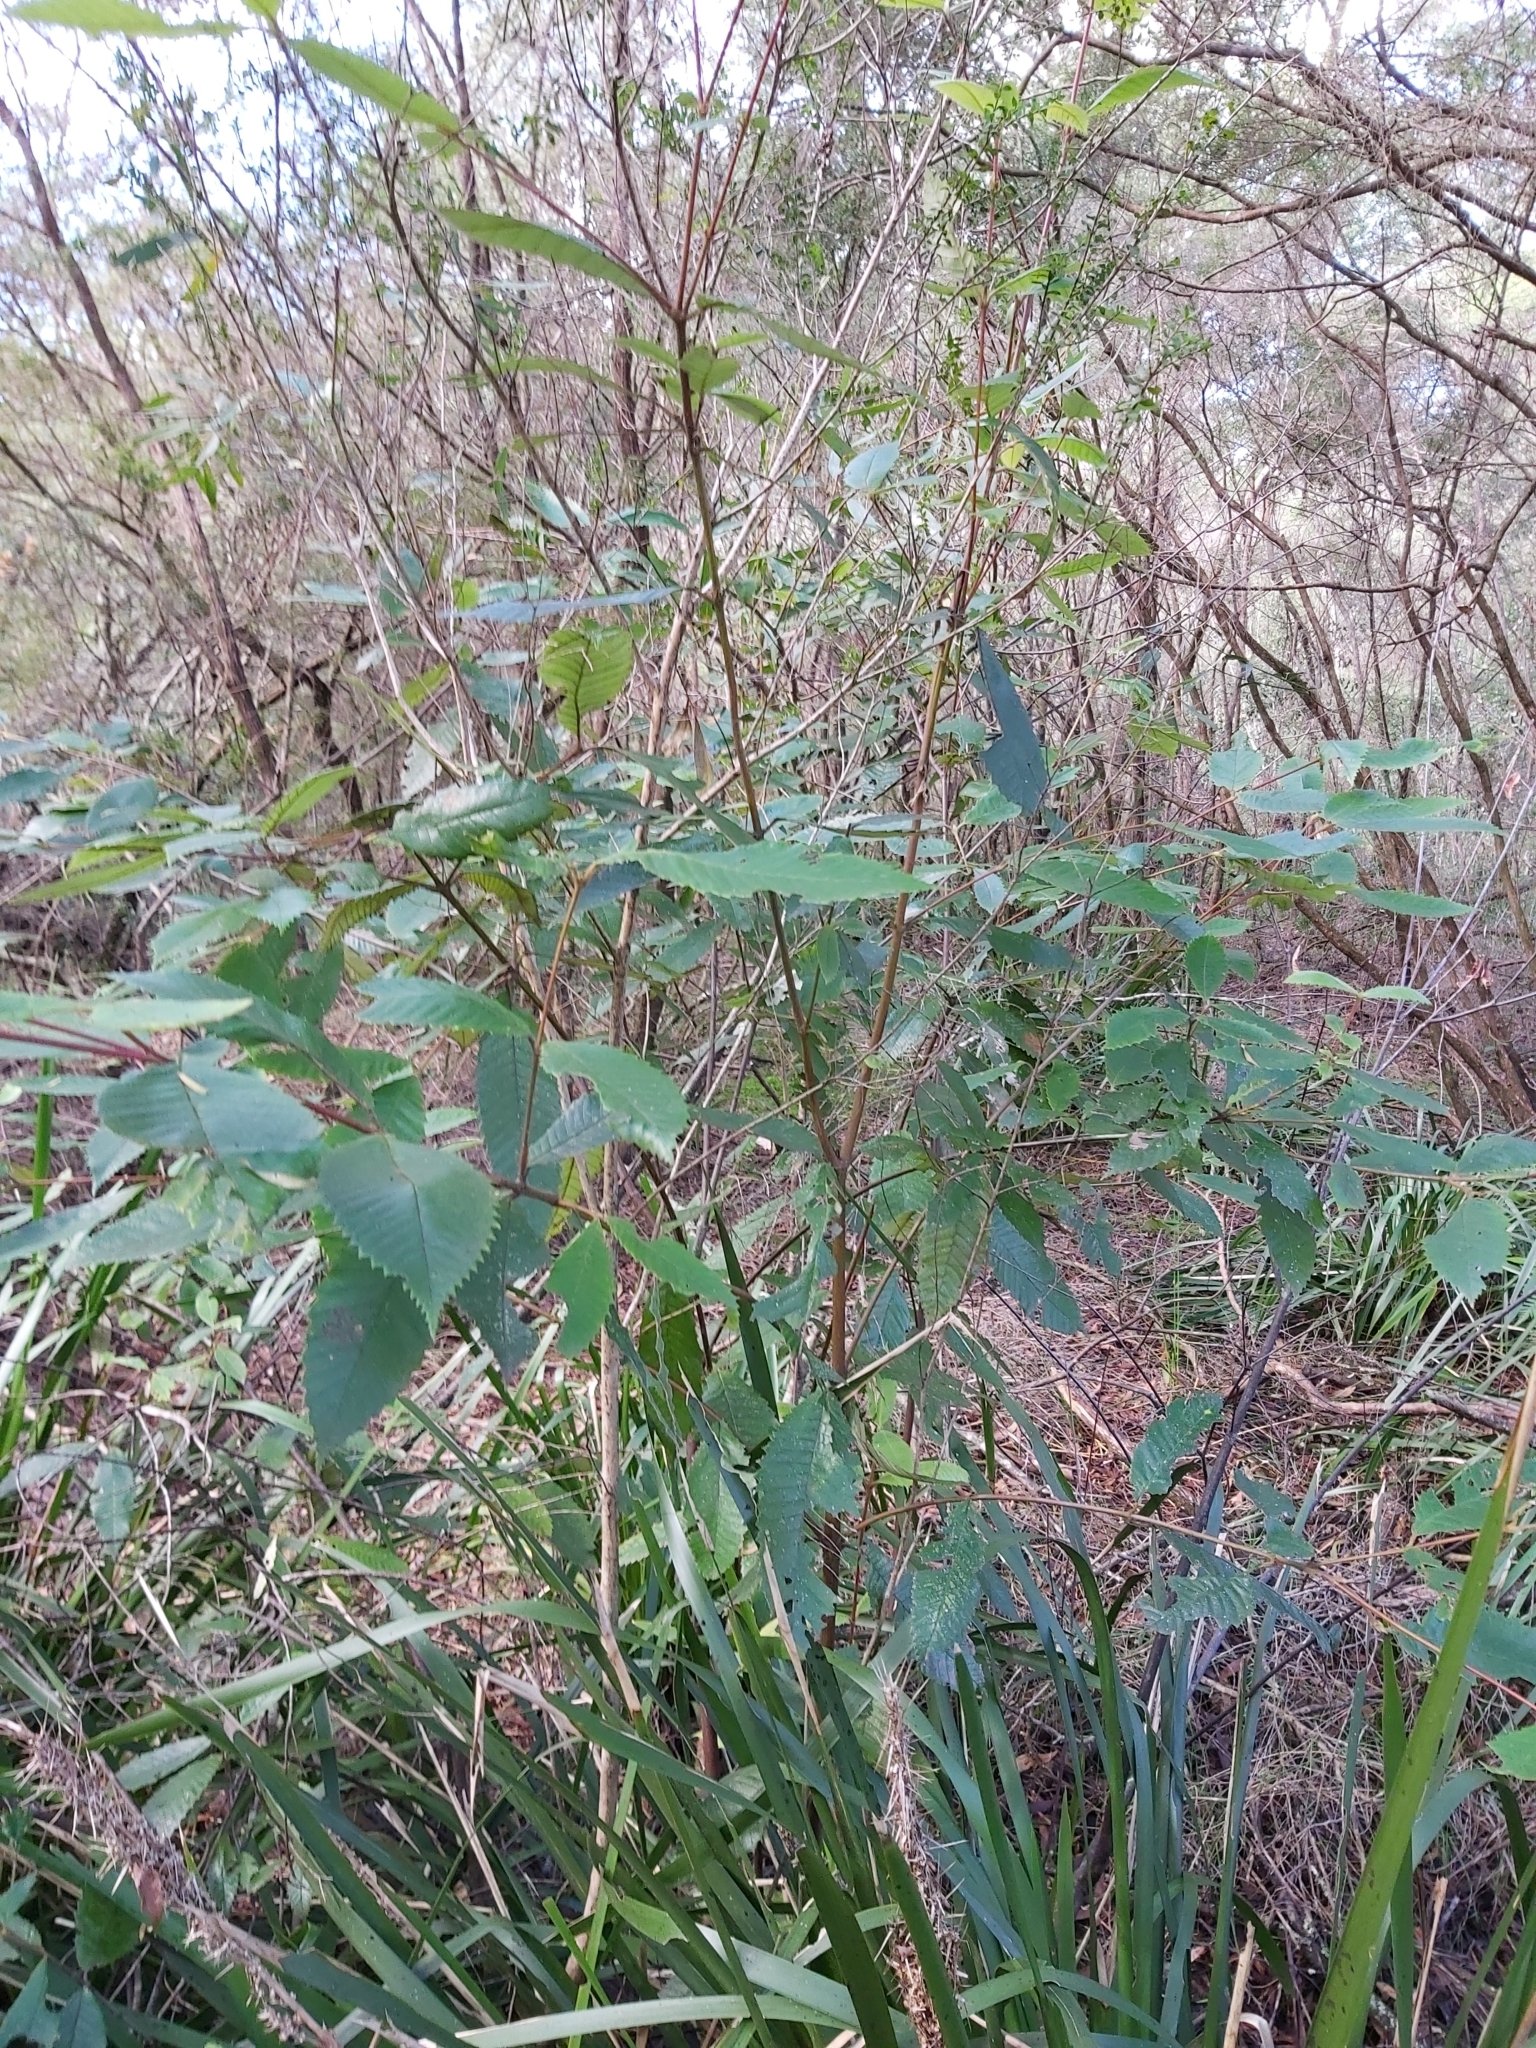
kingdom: Plantae
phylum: Tracheophyta
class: Magnoliopsida
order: Oxalidales
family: Cunoniaceae
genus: Callicoma
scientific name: Callicoma serratifolia
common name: Black wattle
